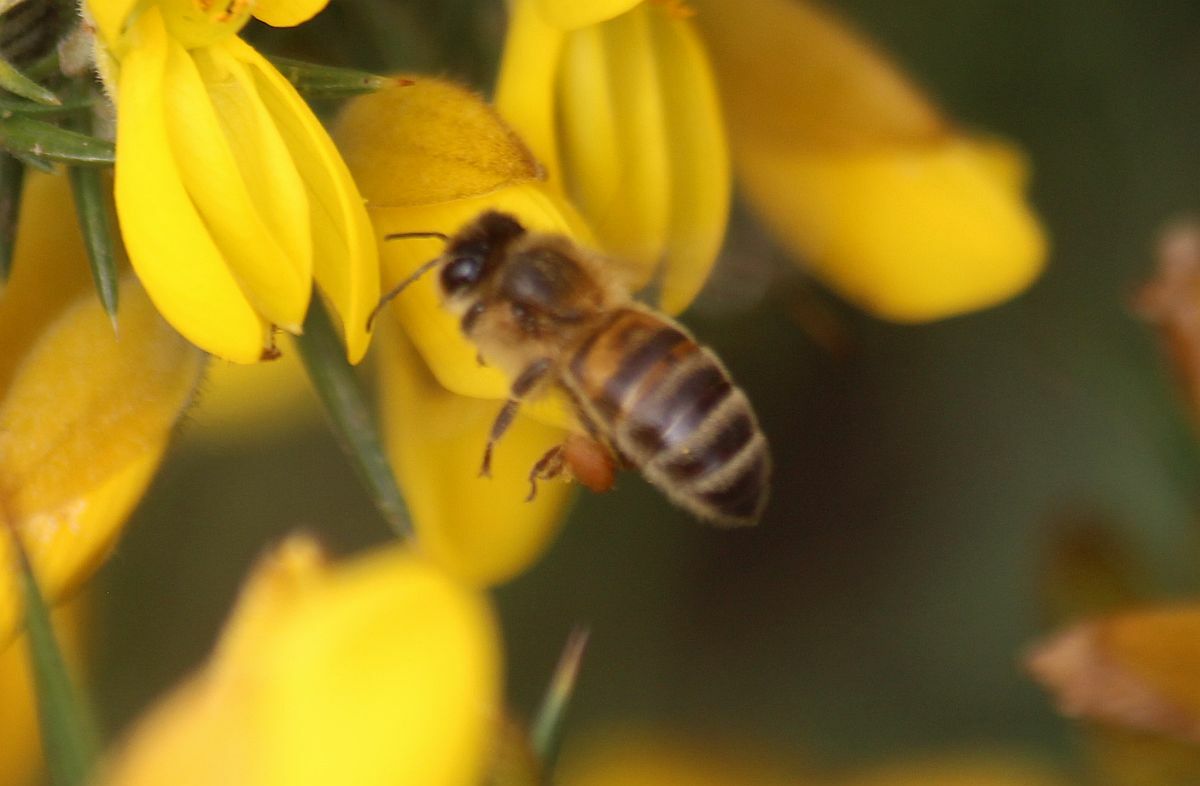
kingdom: Animalia
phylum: Arthropoda
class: Insecta
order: Hymenoptera
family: Apidae
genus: Apis
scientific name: Apis mellifera
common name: Honey bee
